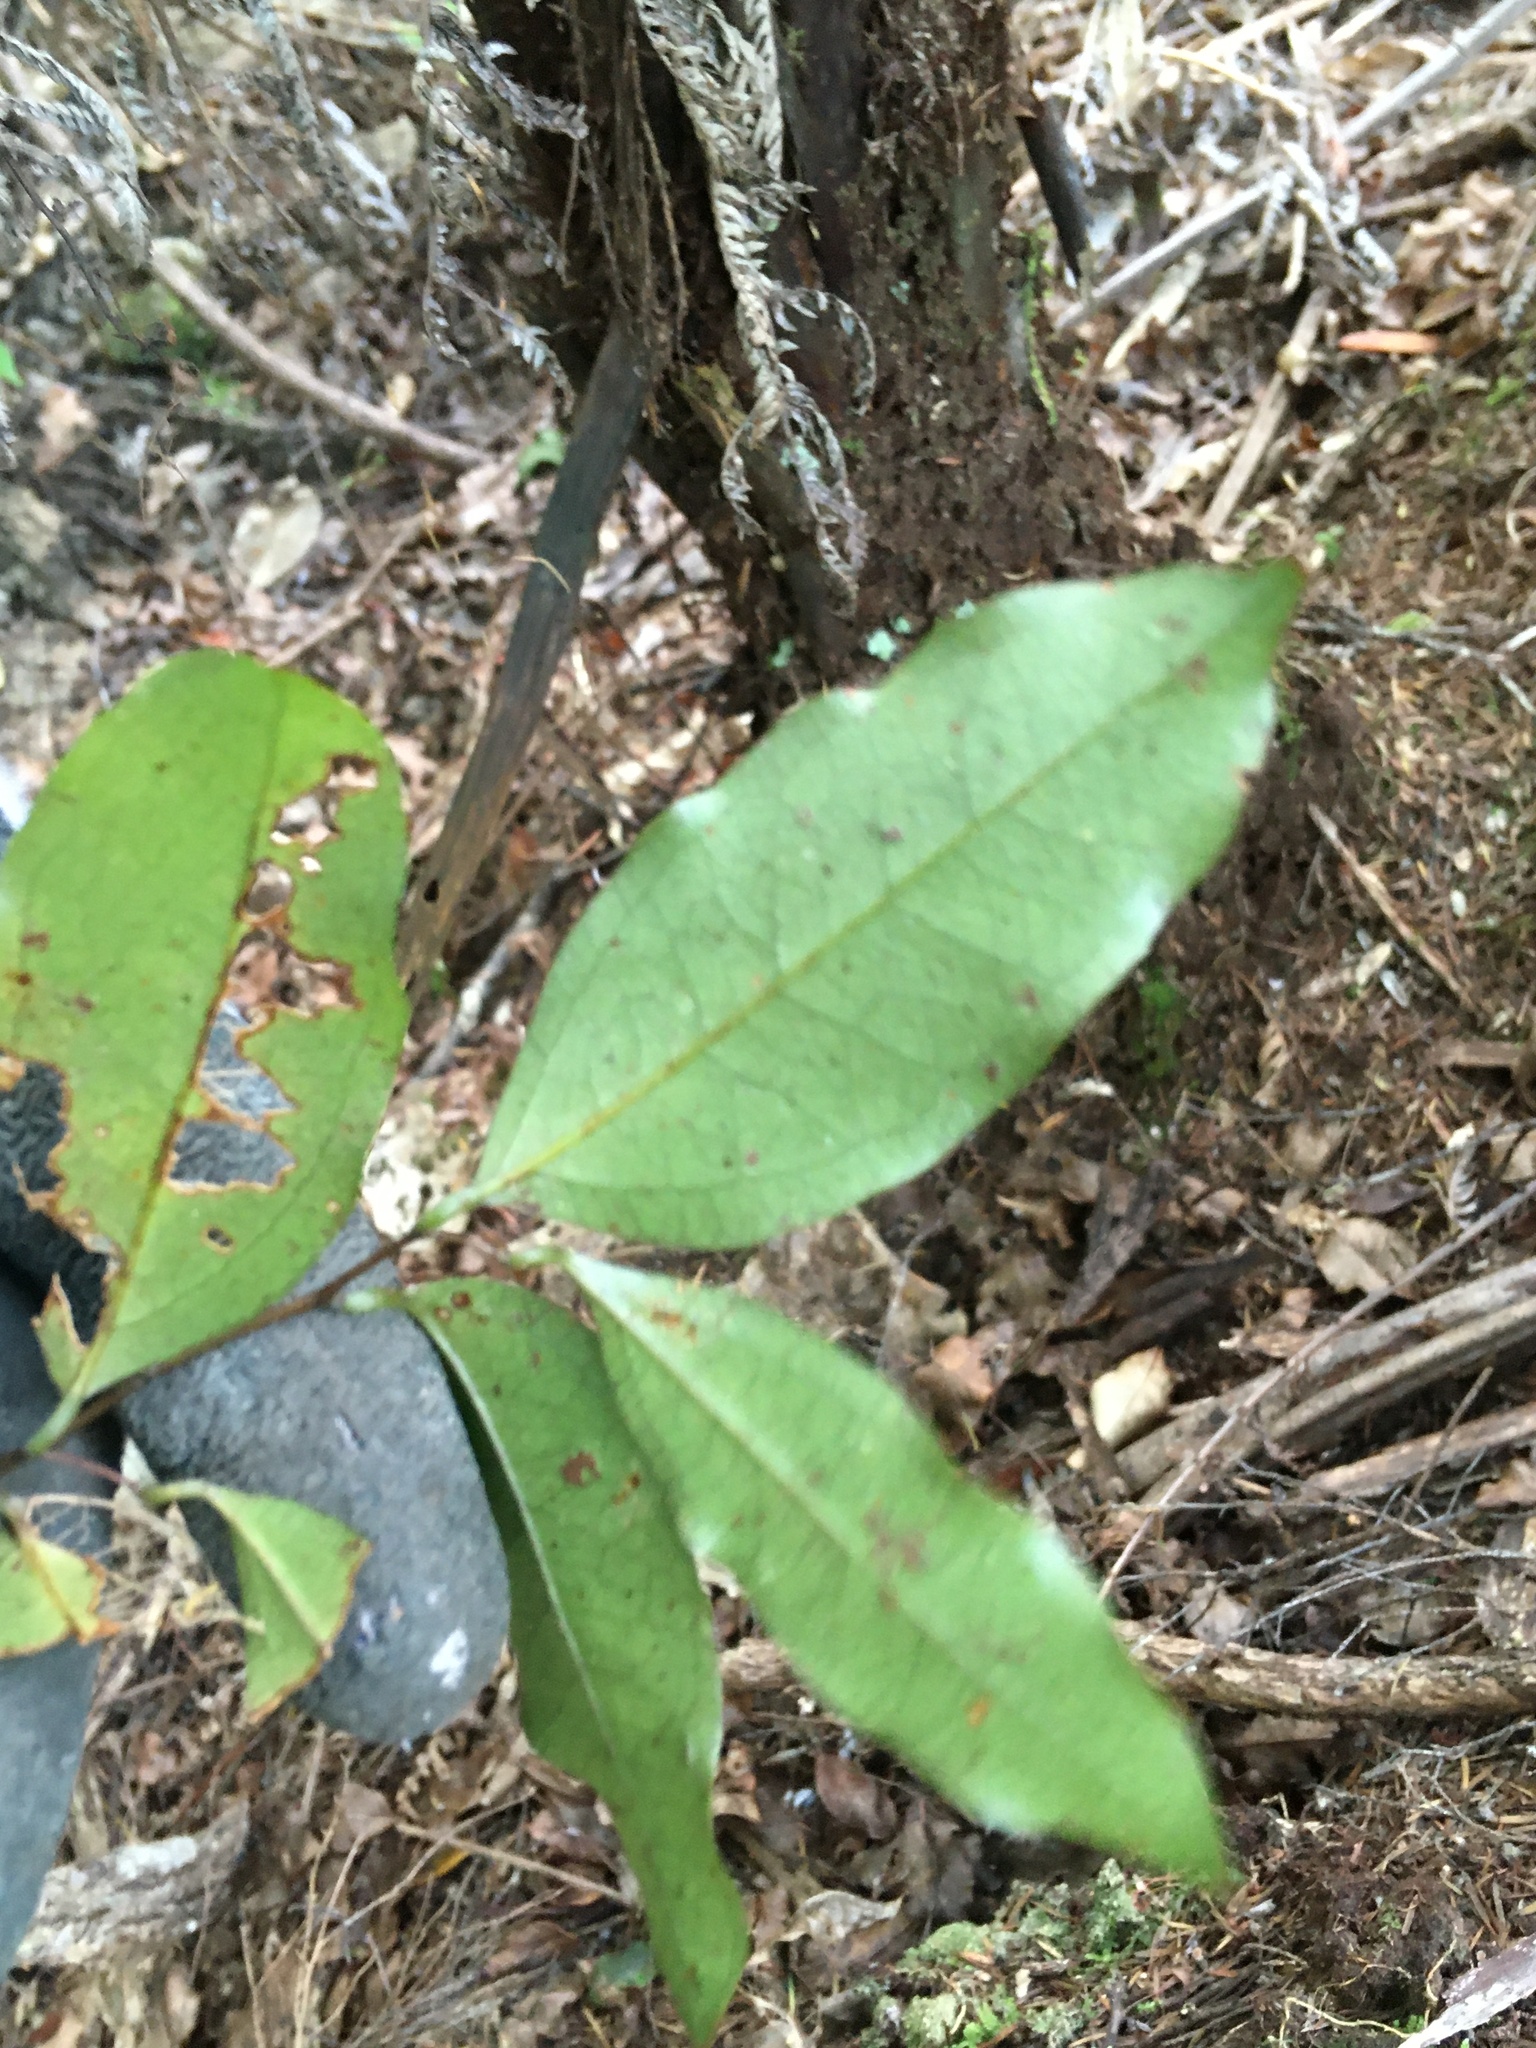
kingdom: Plantae
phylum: Tracheophyta
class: Liliopsida
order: Liliales
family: Ripogonaceae
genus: Ripogonum
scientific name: Ripogonum scandens
